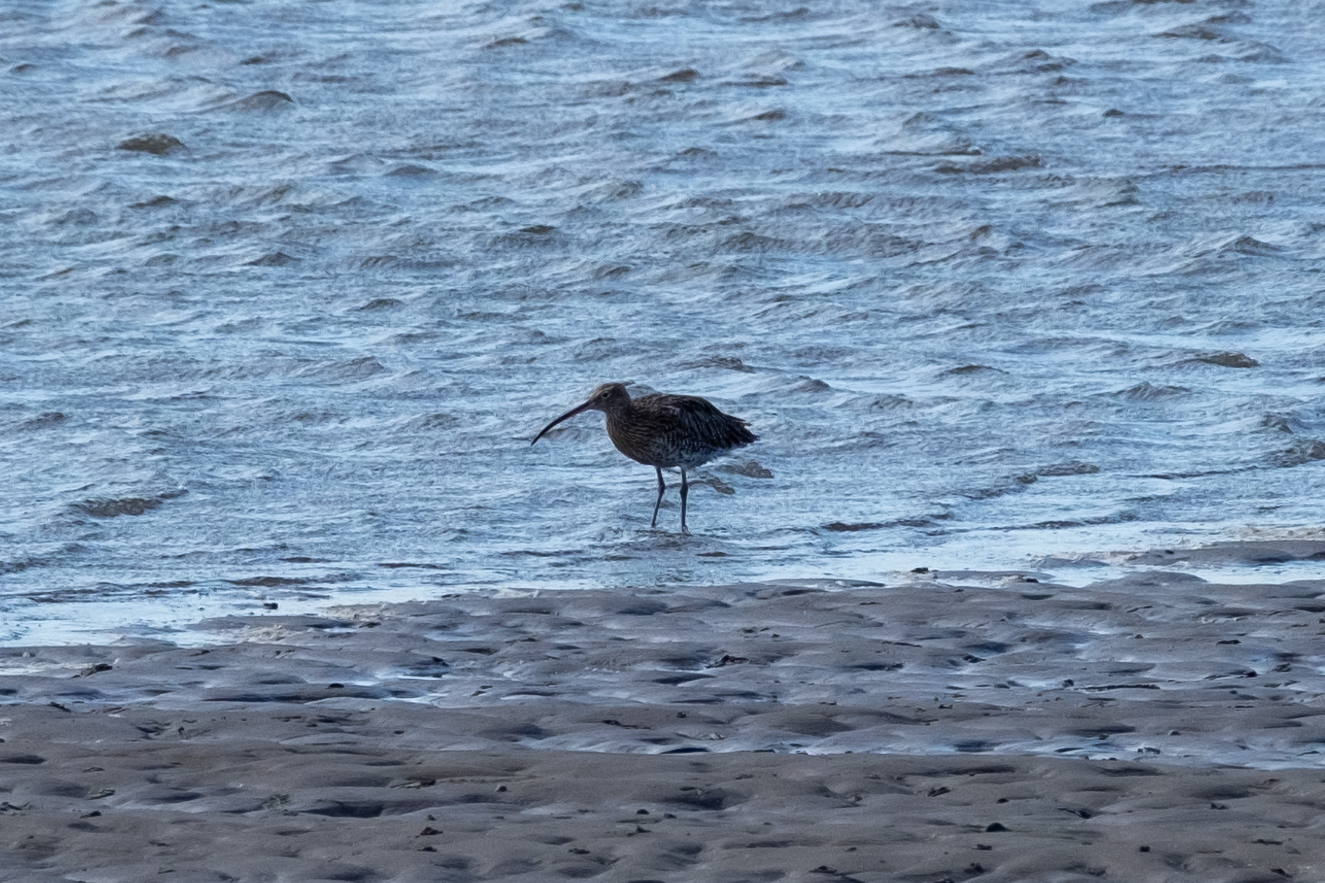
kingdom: Animalia
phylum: Chordata
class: Aves
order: Charadriiformes
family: Scolopacidae
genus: Numenius
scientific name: Numenius arquata
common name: Eurasian curlew
